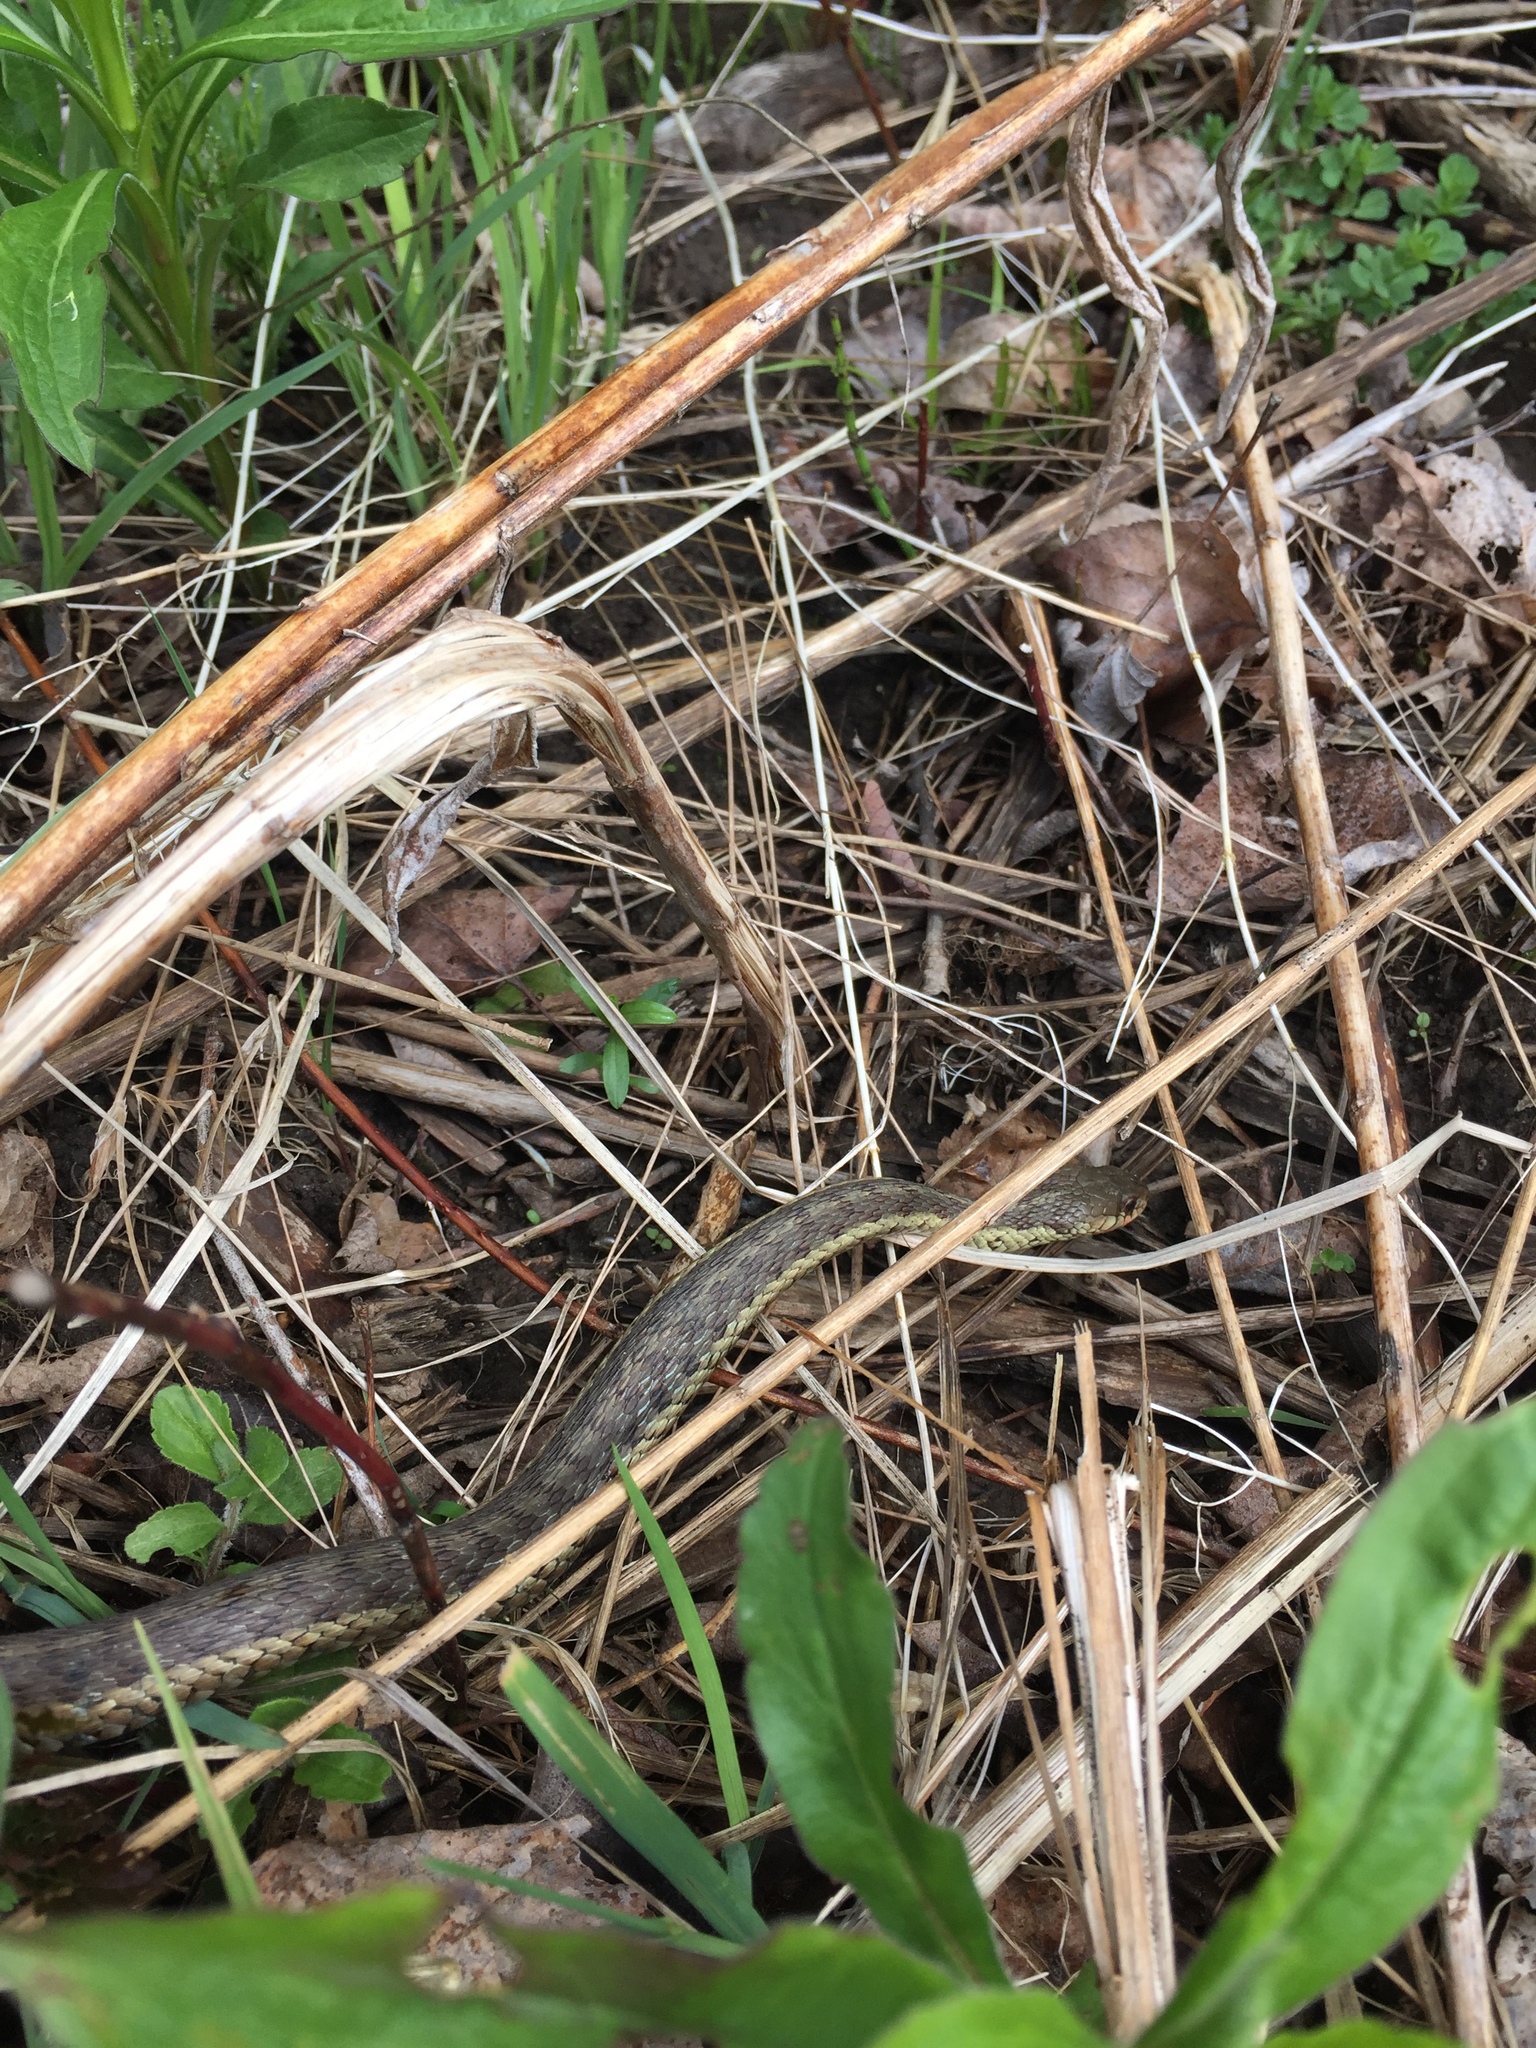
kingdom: Animalia
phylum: Chordata
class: Squamata
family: Colubridae
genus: Thamnophis
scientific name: Thamnophis sirtalis
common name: Common garter snake
